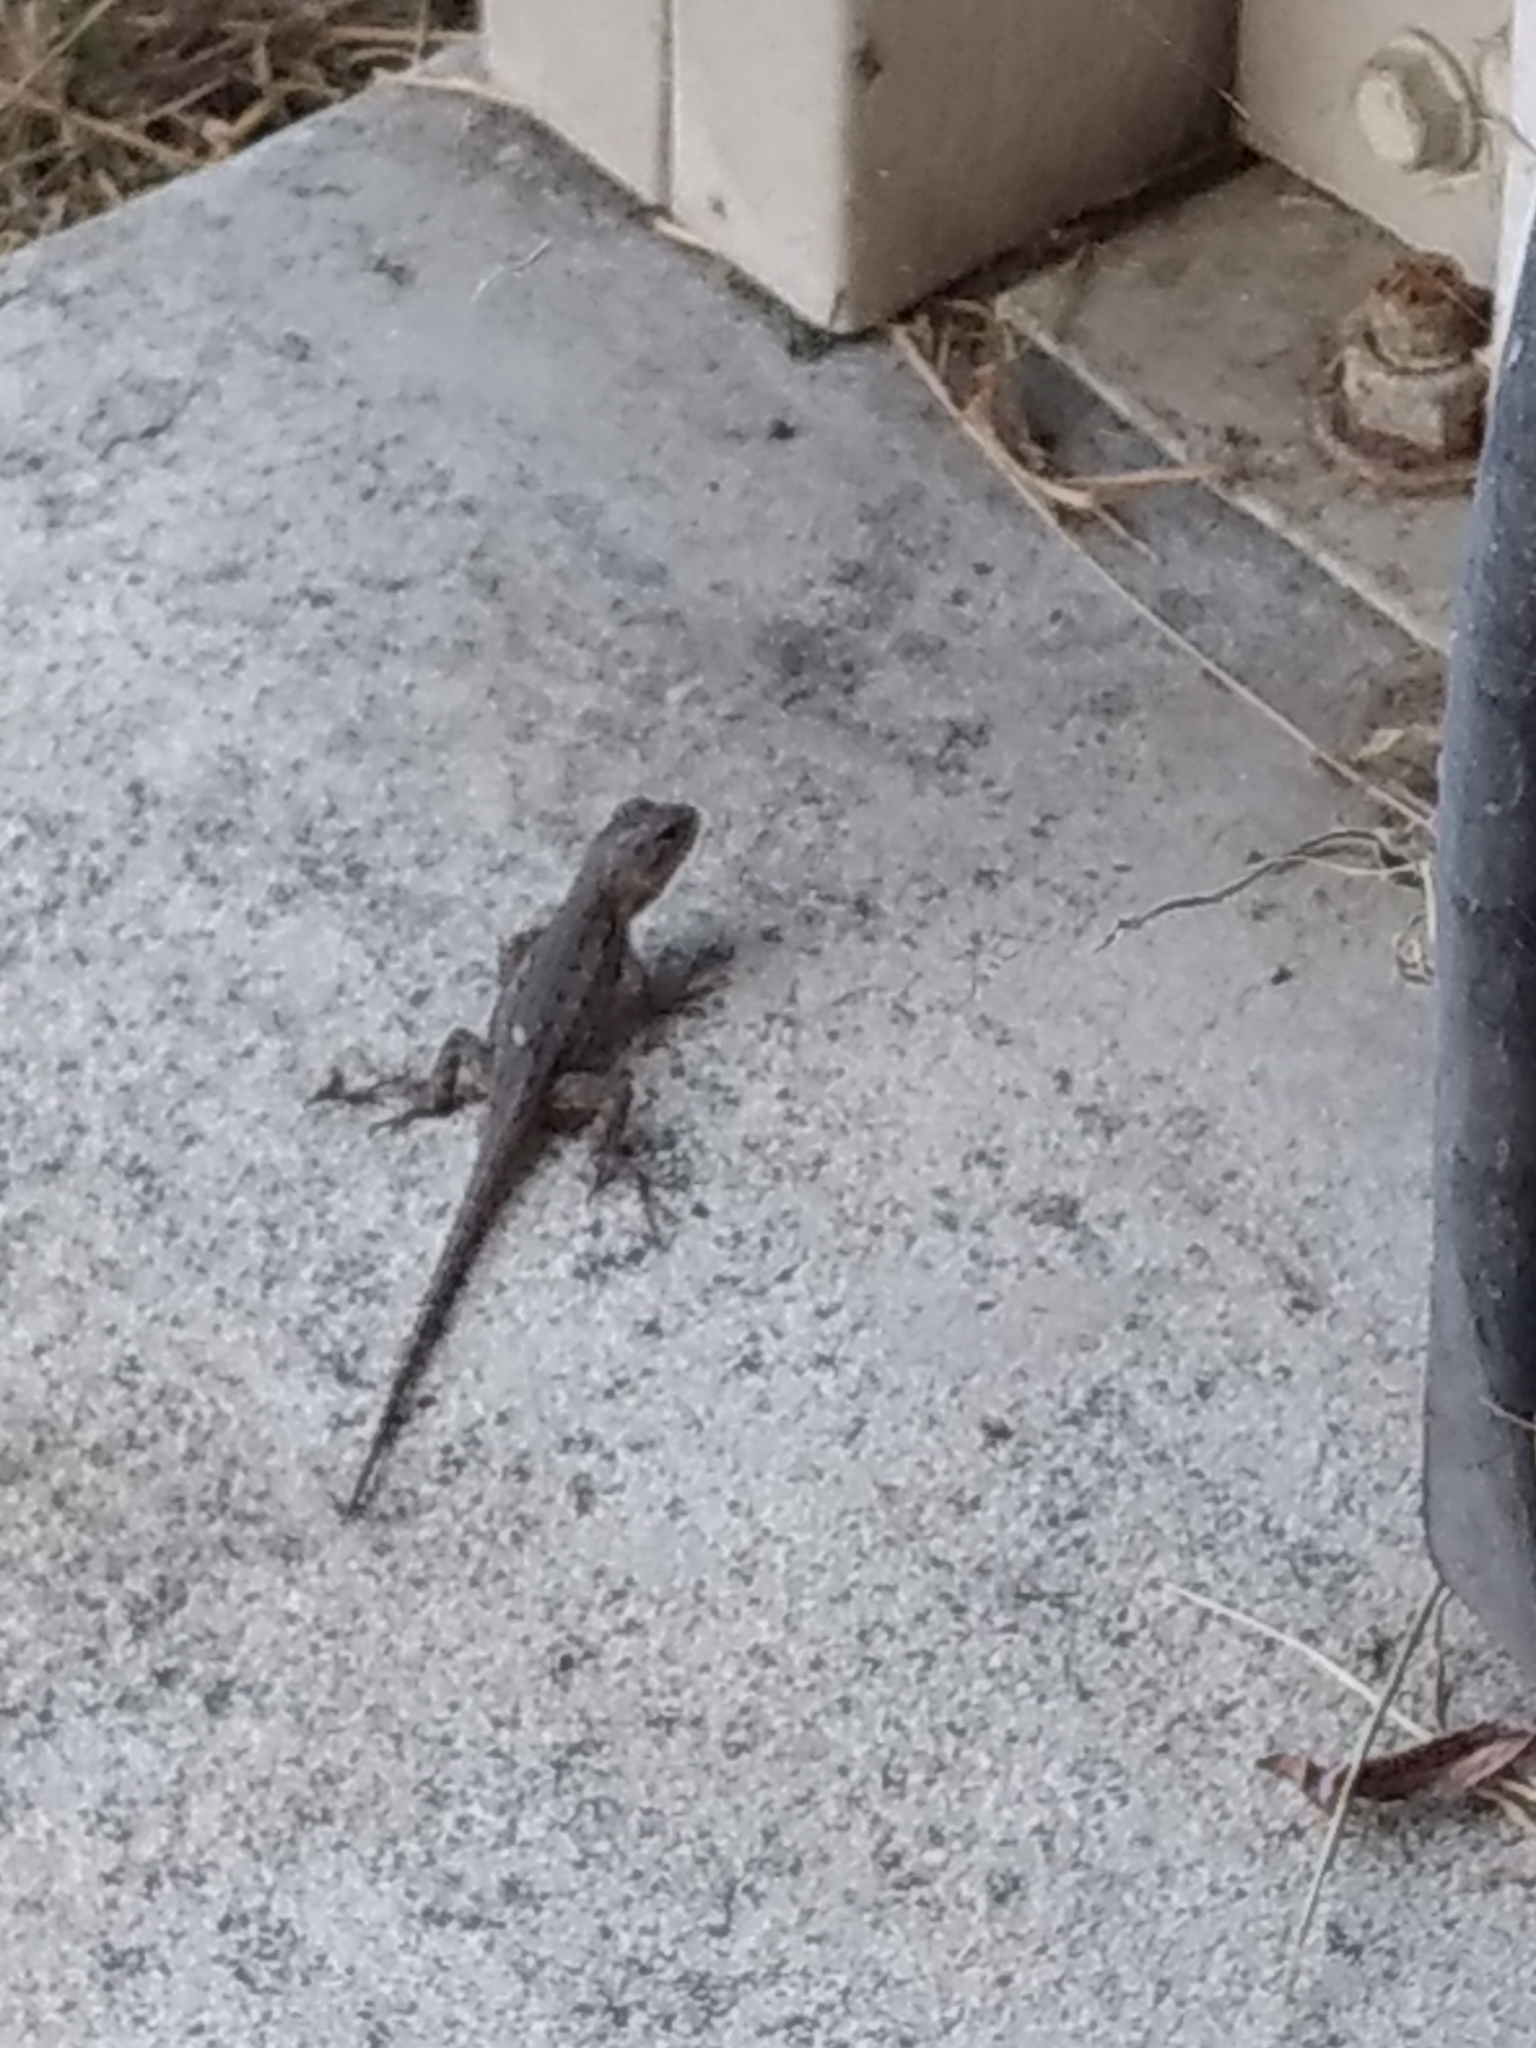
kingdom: Animalia
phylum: Chordata
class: Squamata
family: Phrynosomatidae
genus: Sceloporus
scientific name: Sceloporus occidentalis
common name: Western fence lizard
